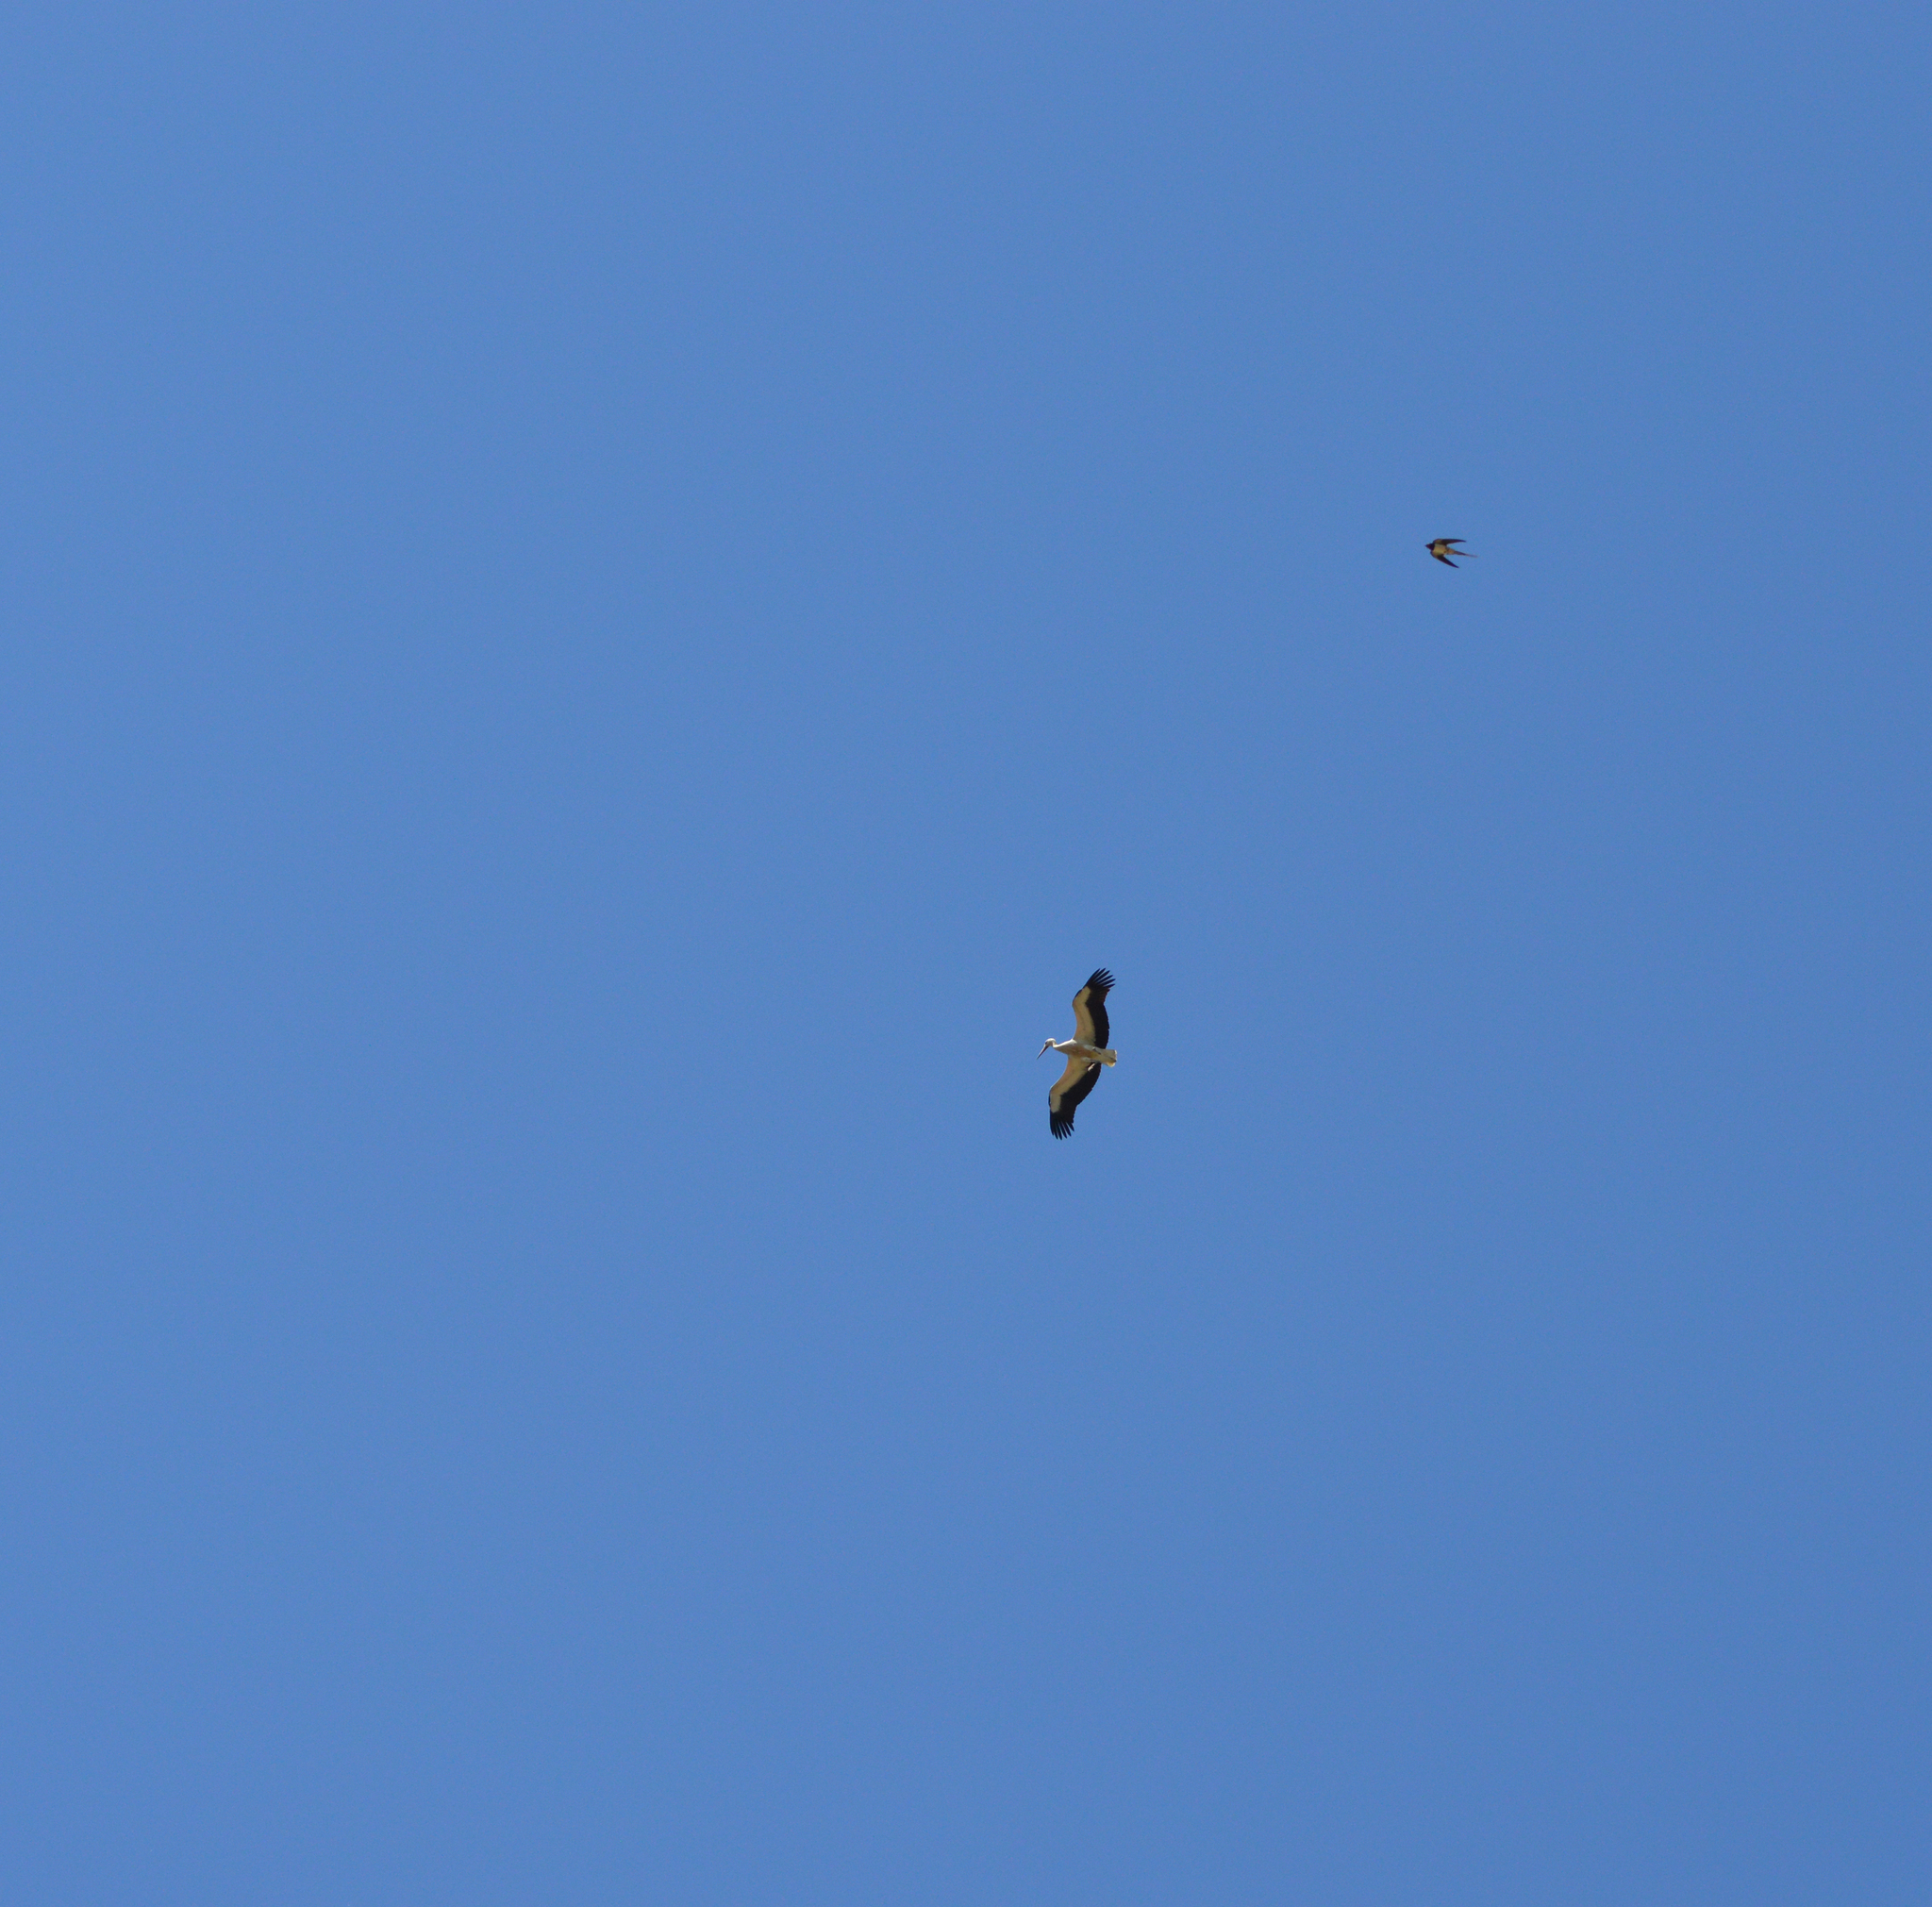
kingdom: Animalia
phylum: Chordata
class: Aves
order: Passeriformes
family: Hirundinidae
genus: Hirundo
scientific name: Hirundo rustica
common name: Barn swallow
